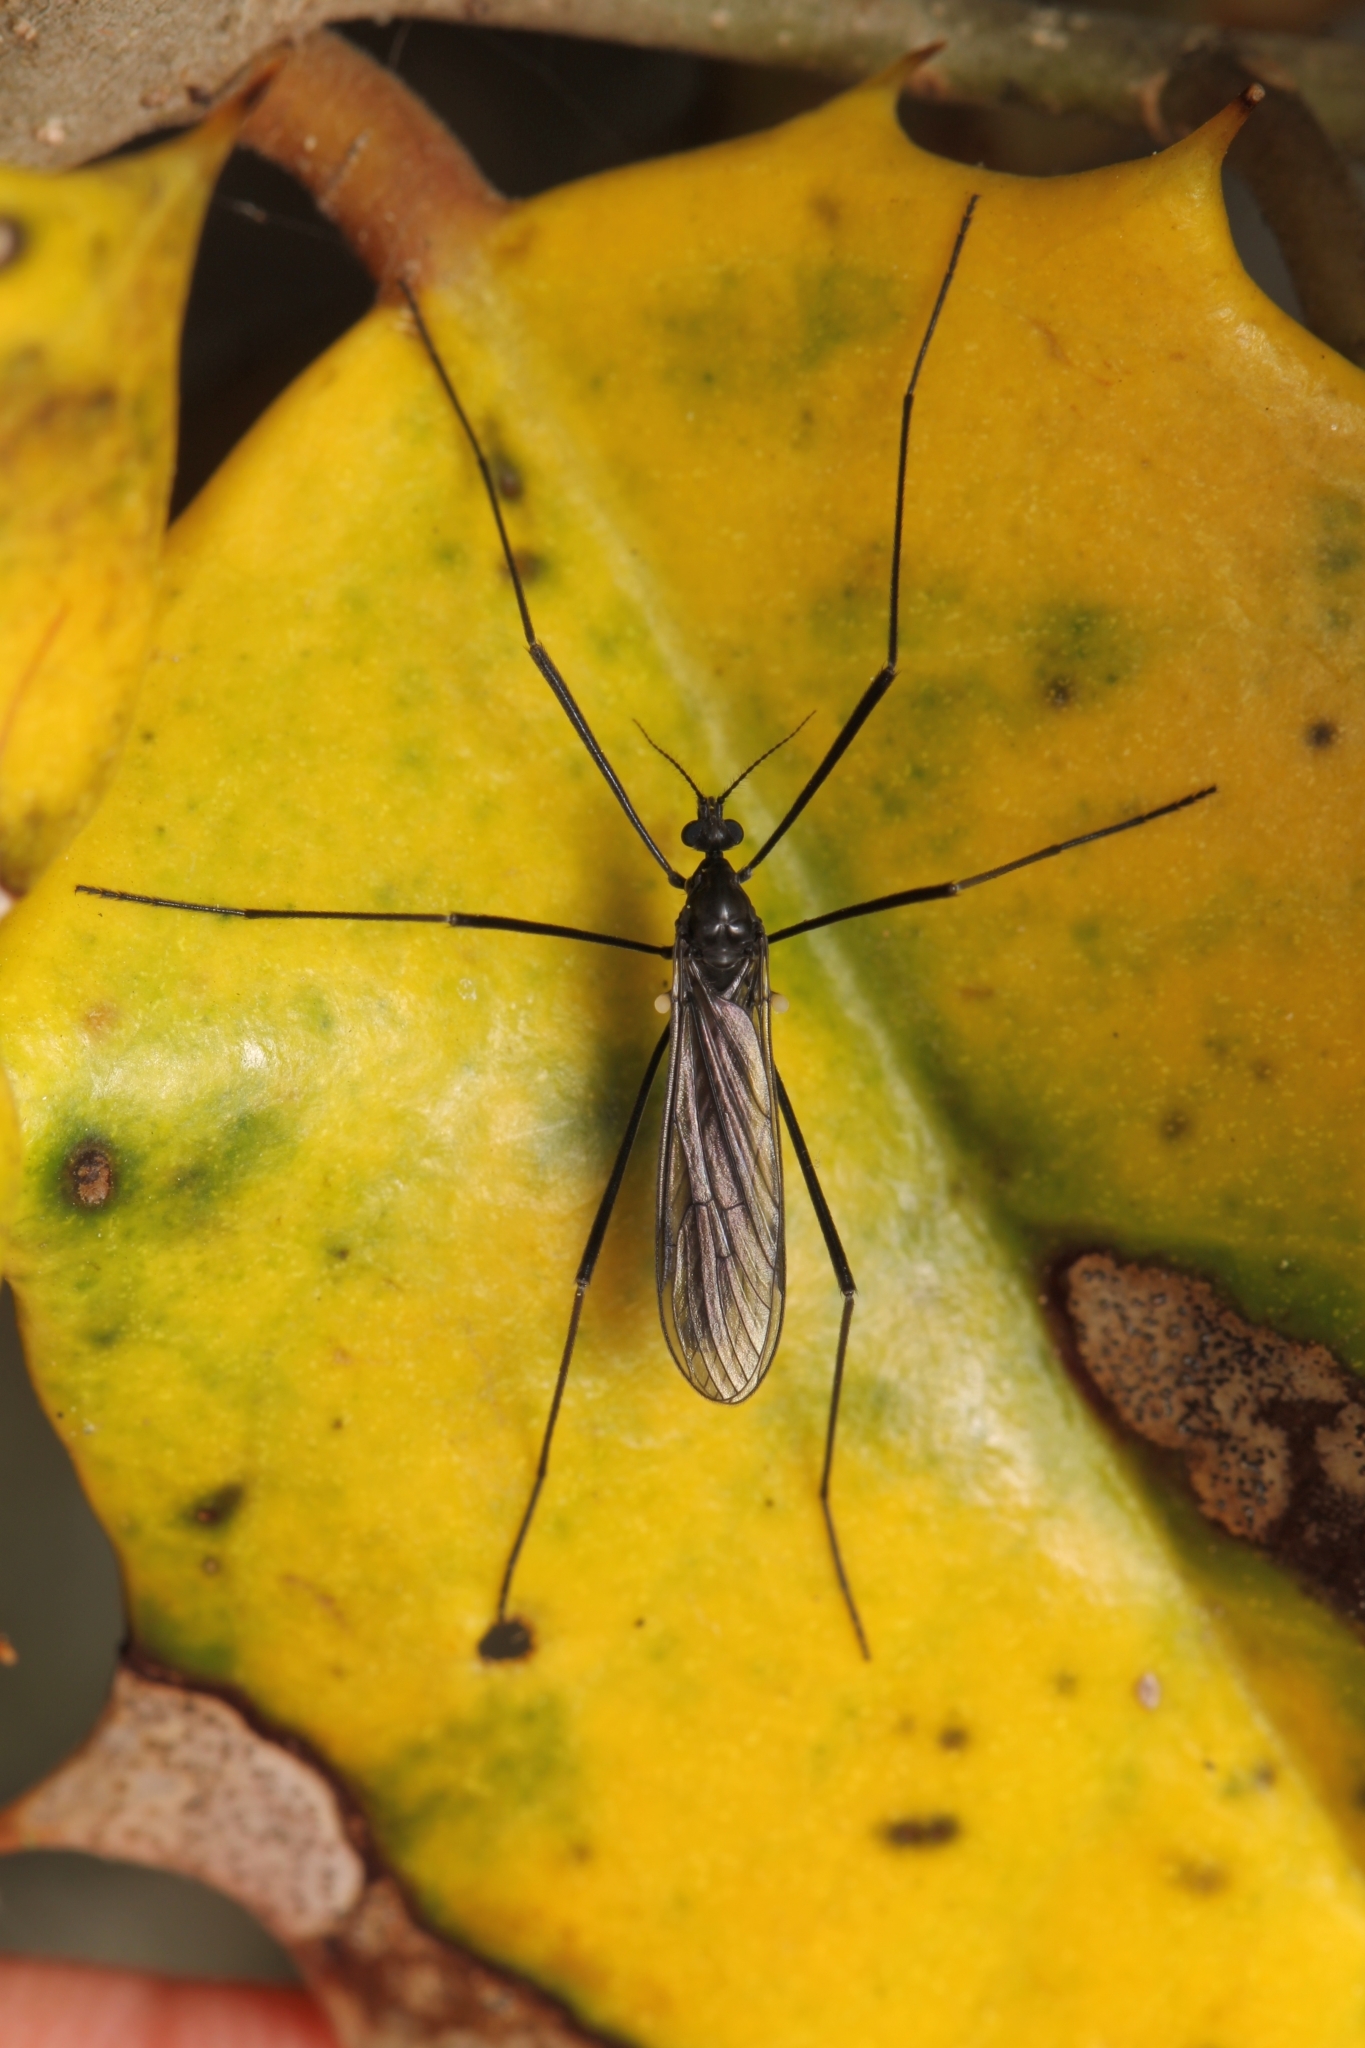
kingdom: Animalia
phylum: Arthropoda
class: Insecta
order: Diptera
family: Limoniidae
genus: Gnophomyia
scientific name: Gnophomyia tristissima
